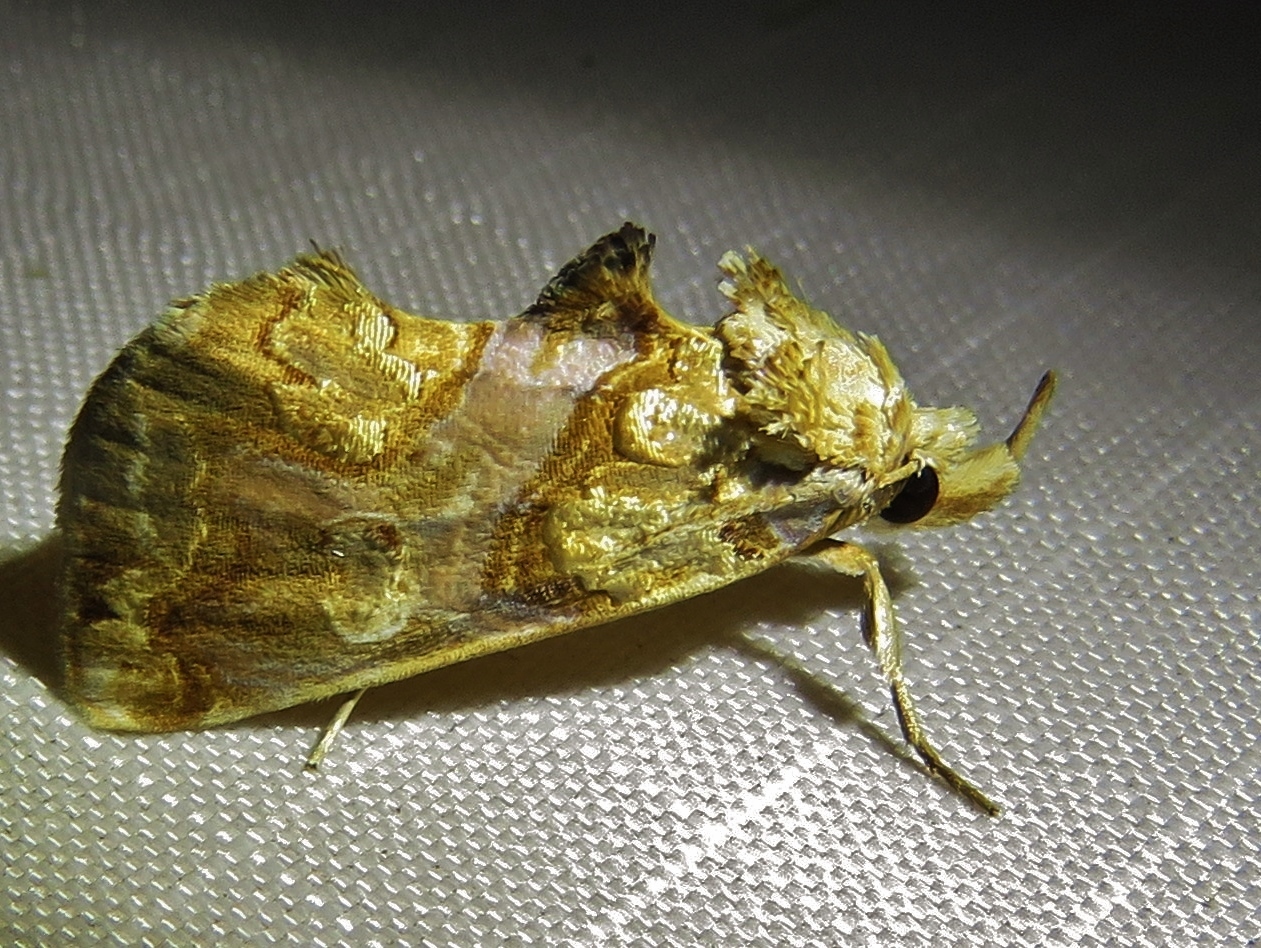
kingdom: Animalia
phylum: Arthropoda
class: Insecta
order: Lepidoptera
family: Erebidae
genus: Plusiodonta
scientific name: Plusiodonta compressipalpis
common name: Moonseed moth
